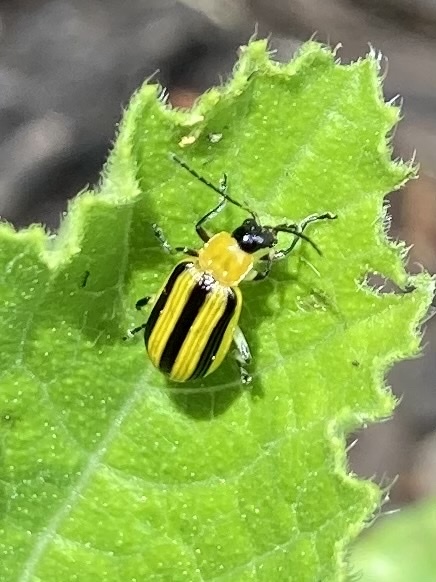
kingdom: Animalia
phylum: Arthropoda
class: Insecta
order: Coleoptera
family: Chrysomelidae
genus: Acalymma
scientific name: Acalymma vittatum
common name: Striped cucumber beetle
